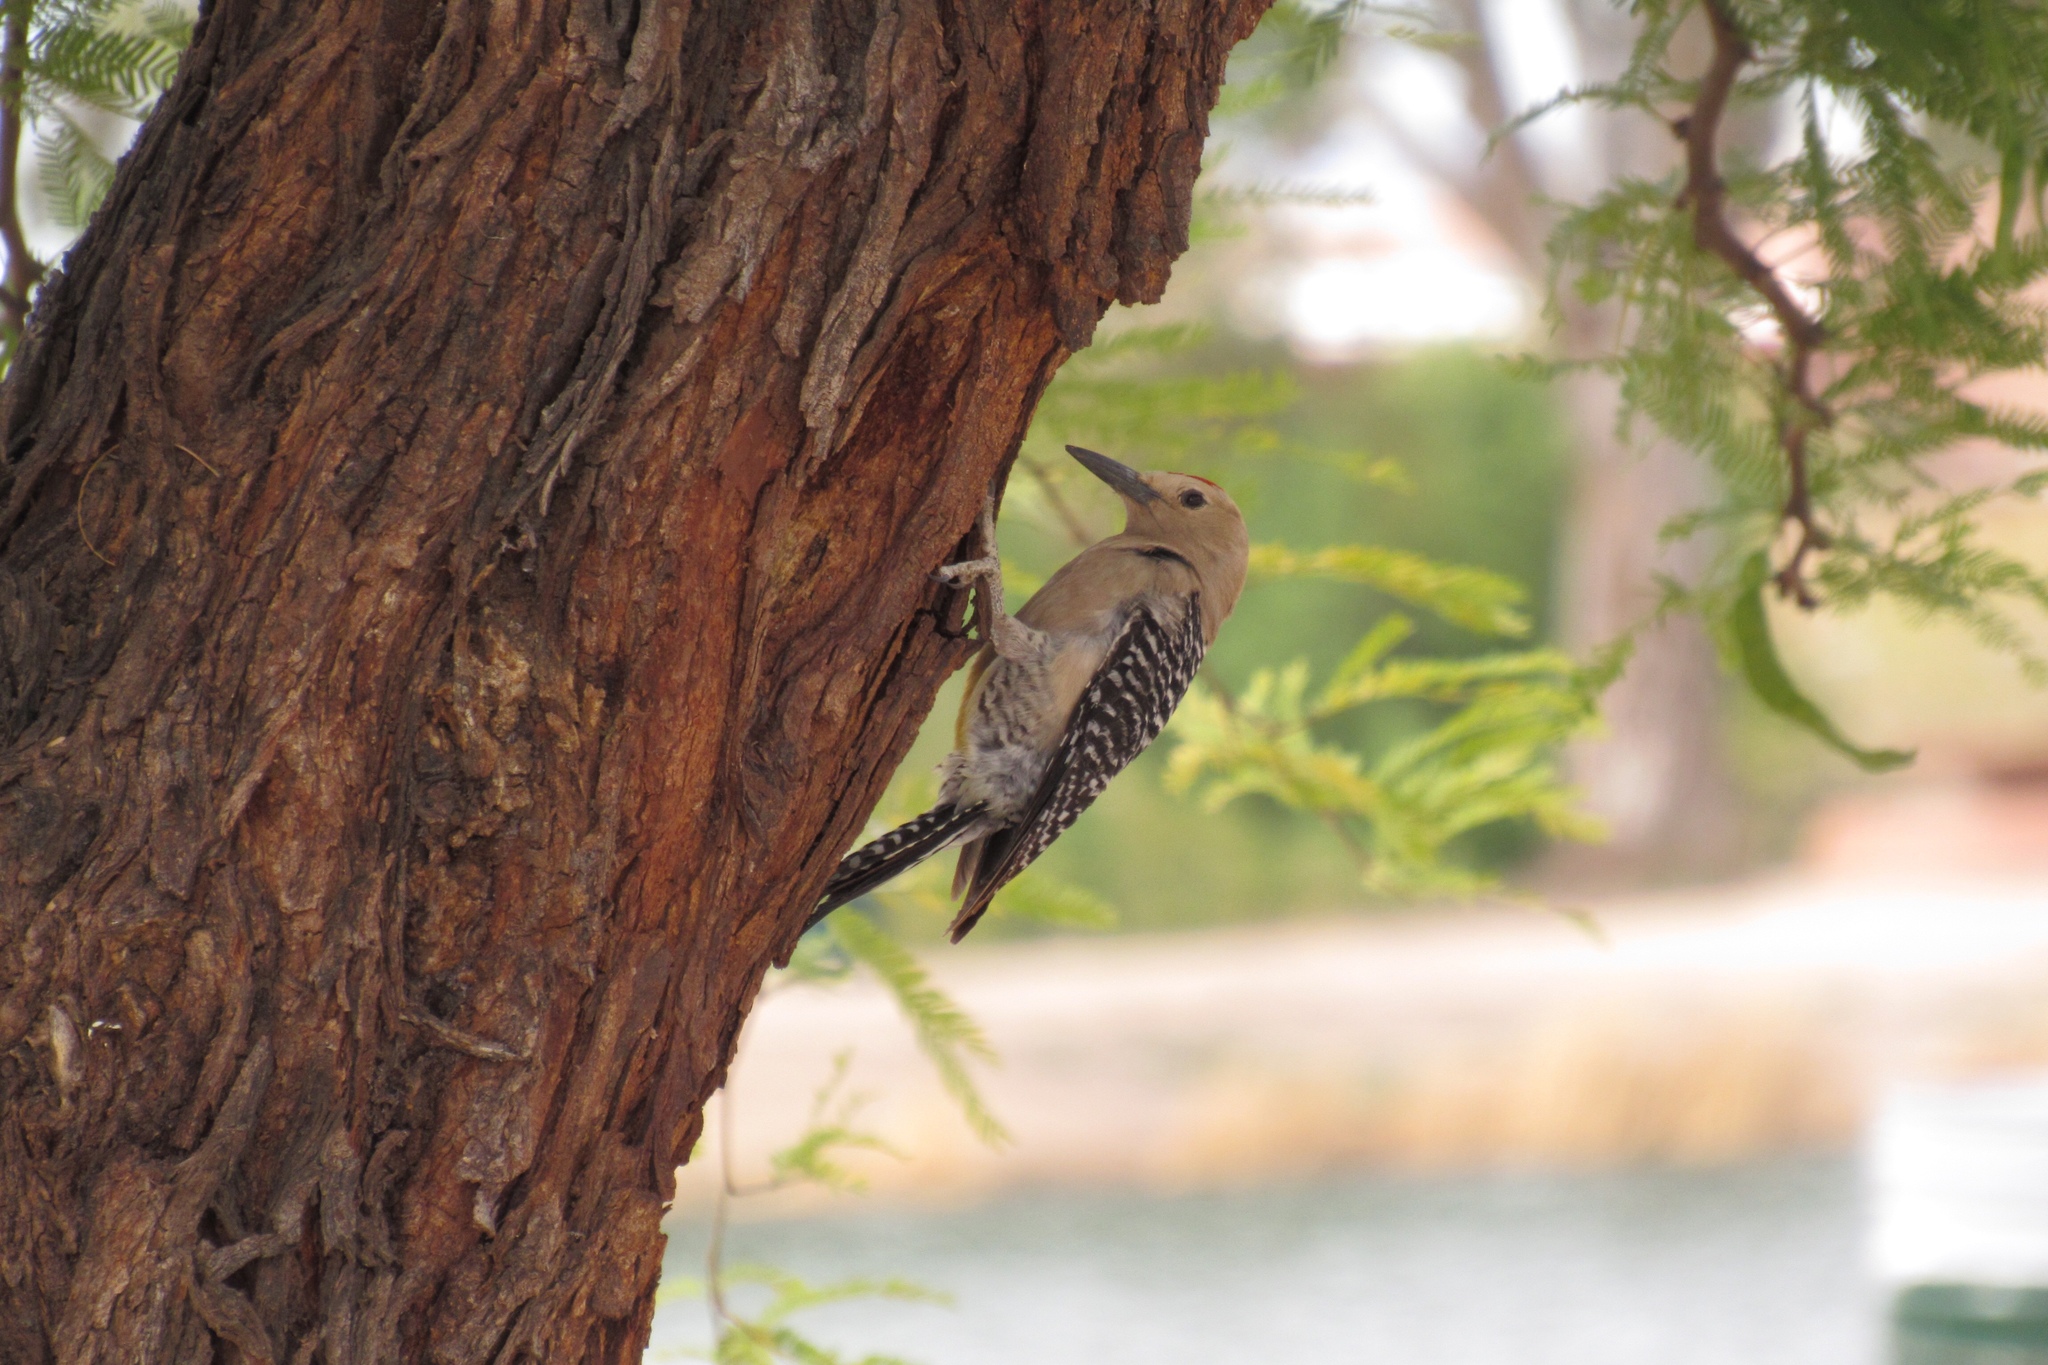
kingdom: Animalia
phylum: Chordata
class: Aves
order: Piciformes
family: Picidae
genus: Melanerpes
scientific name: Melanerpes uropygialis
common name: Gila woodpecker
